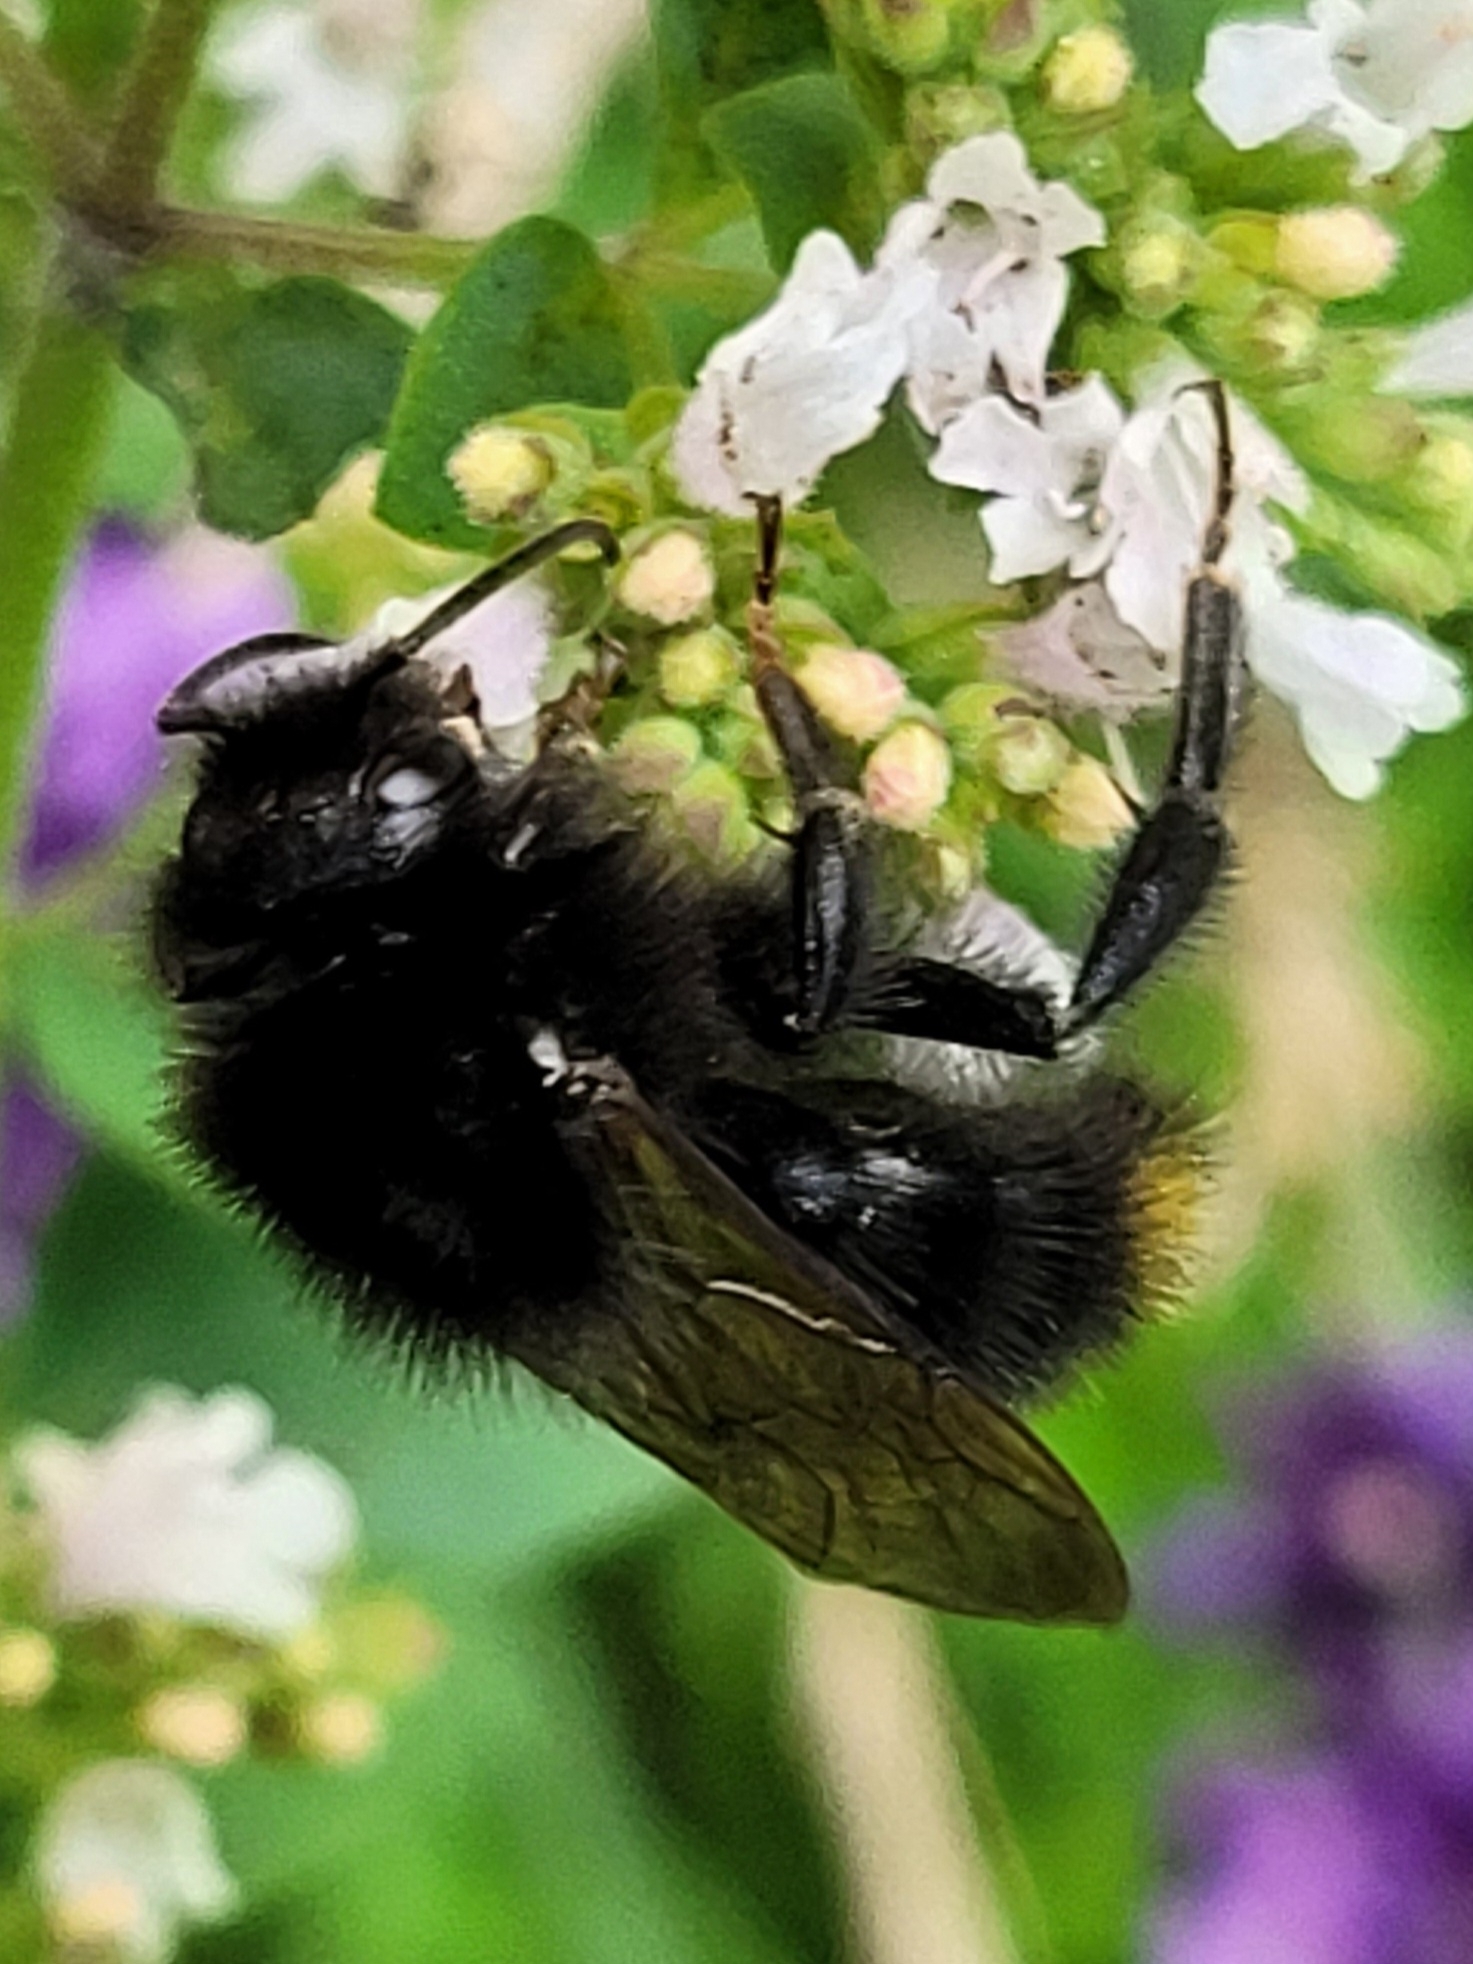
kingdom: Animalia
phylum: Arthropoda
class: Insecta
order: Hymenoptera
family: Apidae
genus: Bombus
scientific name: Bombus rupestris
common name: Hill cuckoo-bee
